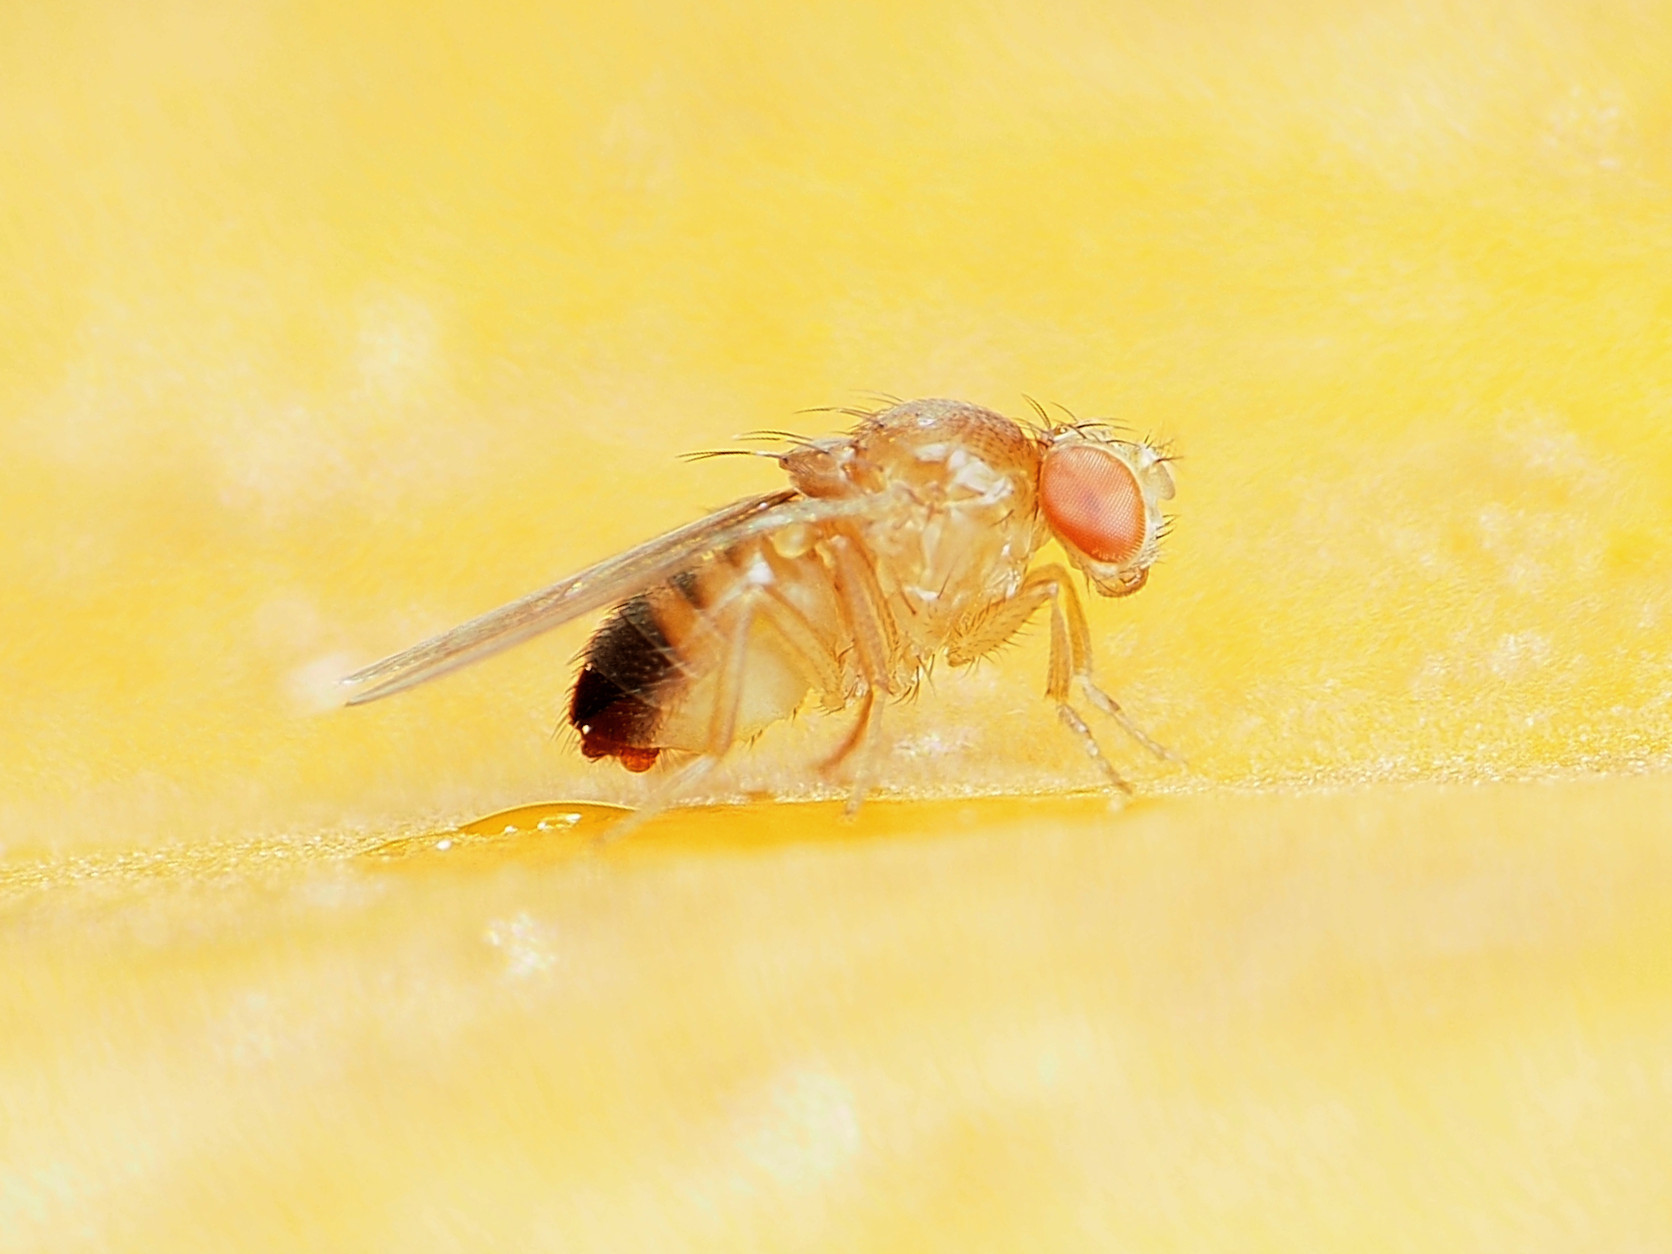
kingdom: Animalia
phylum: Arthropoda
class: Insecta
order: Diptera
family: Drosophilidae
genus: Drosophila
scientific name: Drosophila simulans
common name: Fly
